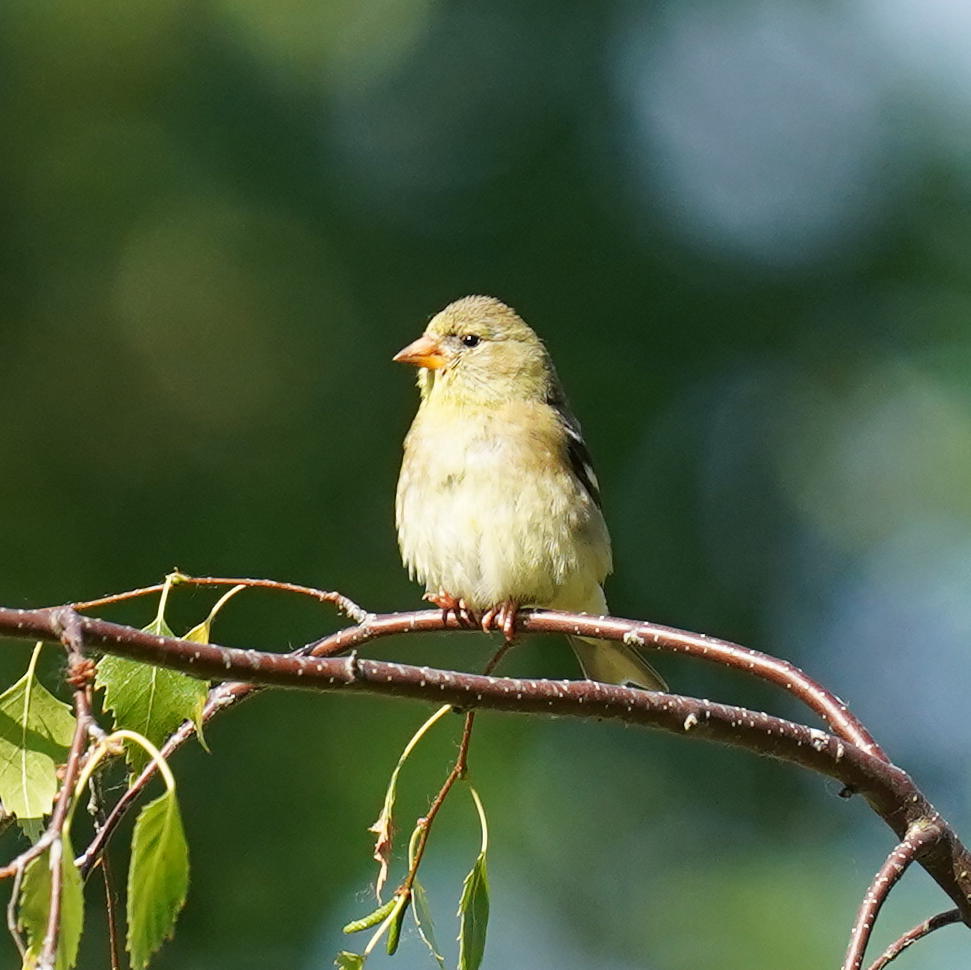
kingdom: Animalia
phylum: Chordata
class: Aves
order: Passeriformes
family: Fringillidae
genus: Spinus
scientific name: Spinus tristis
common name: American goldfinch
